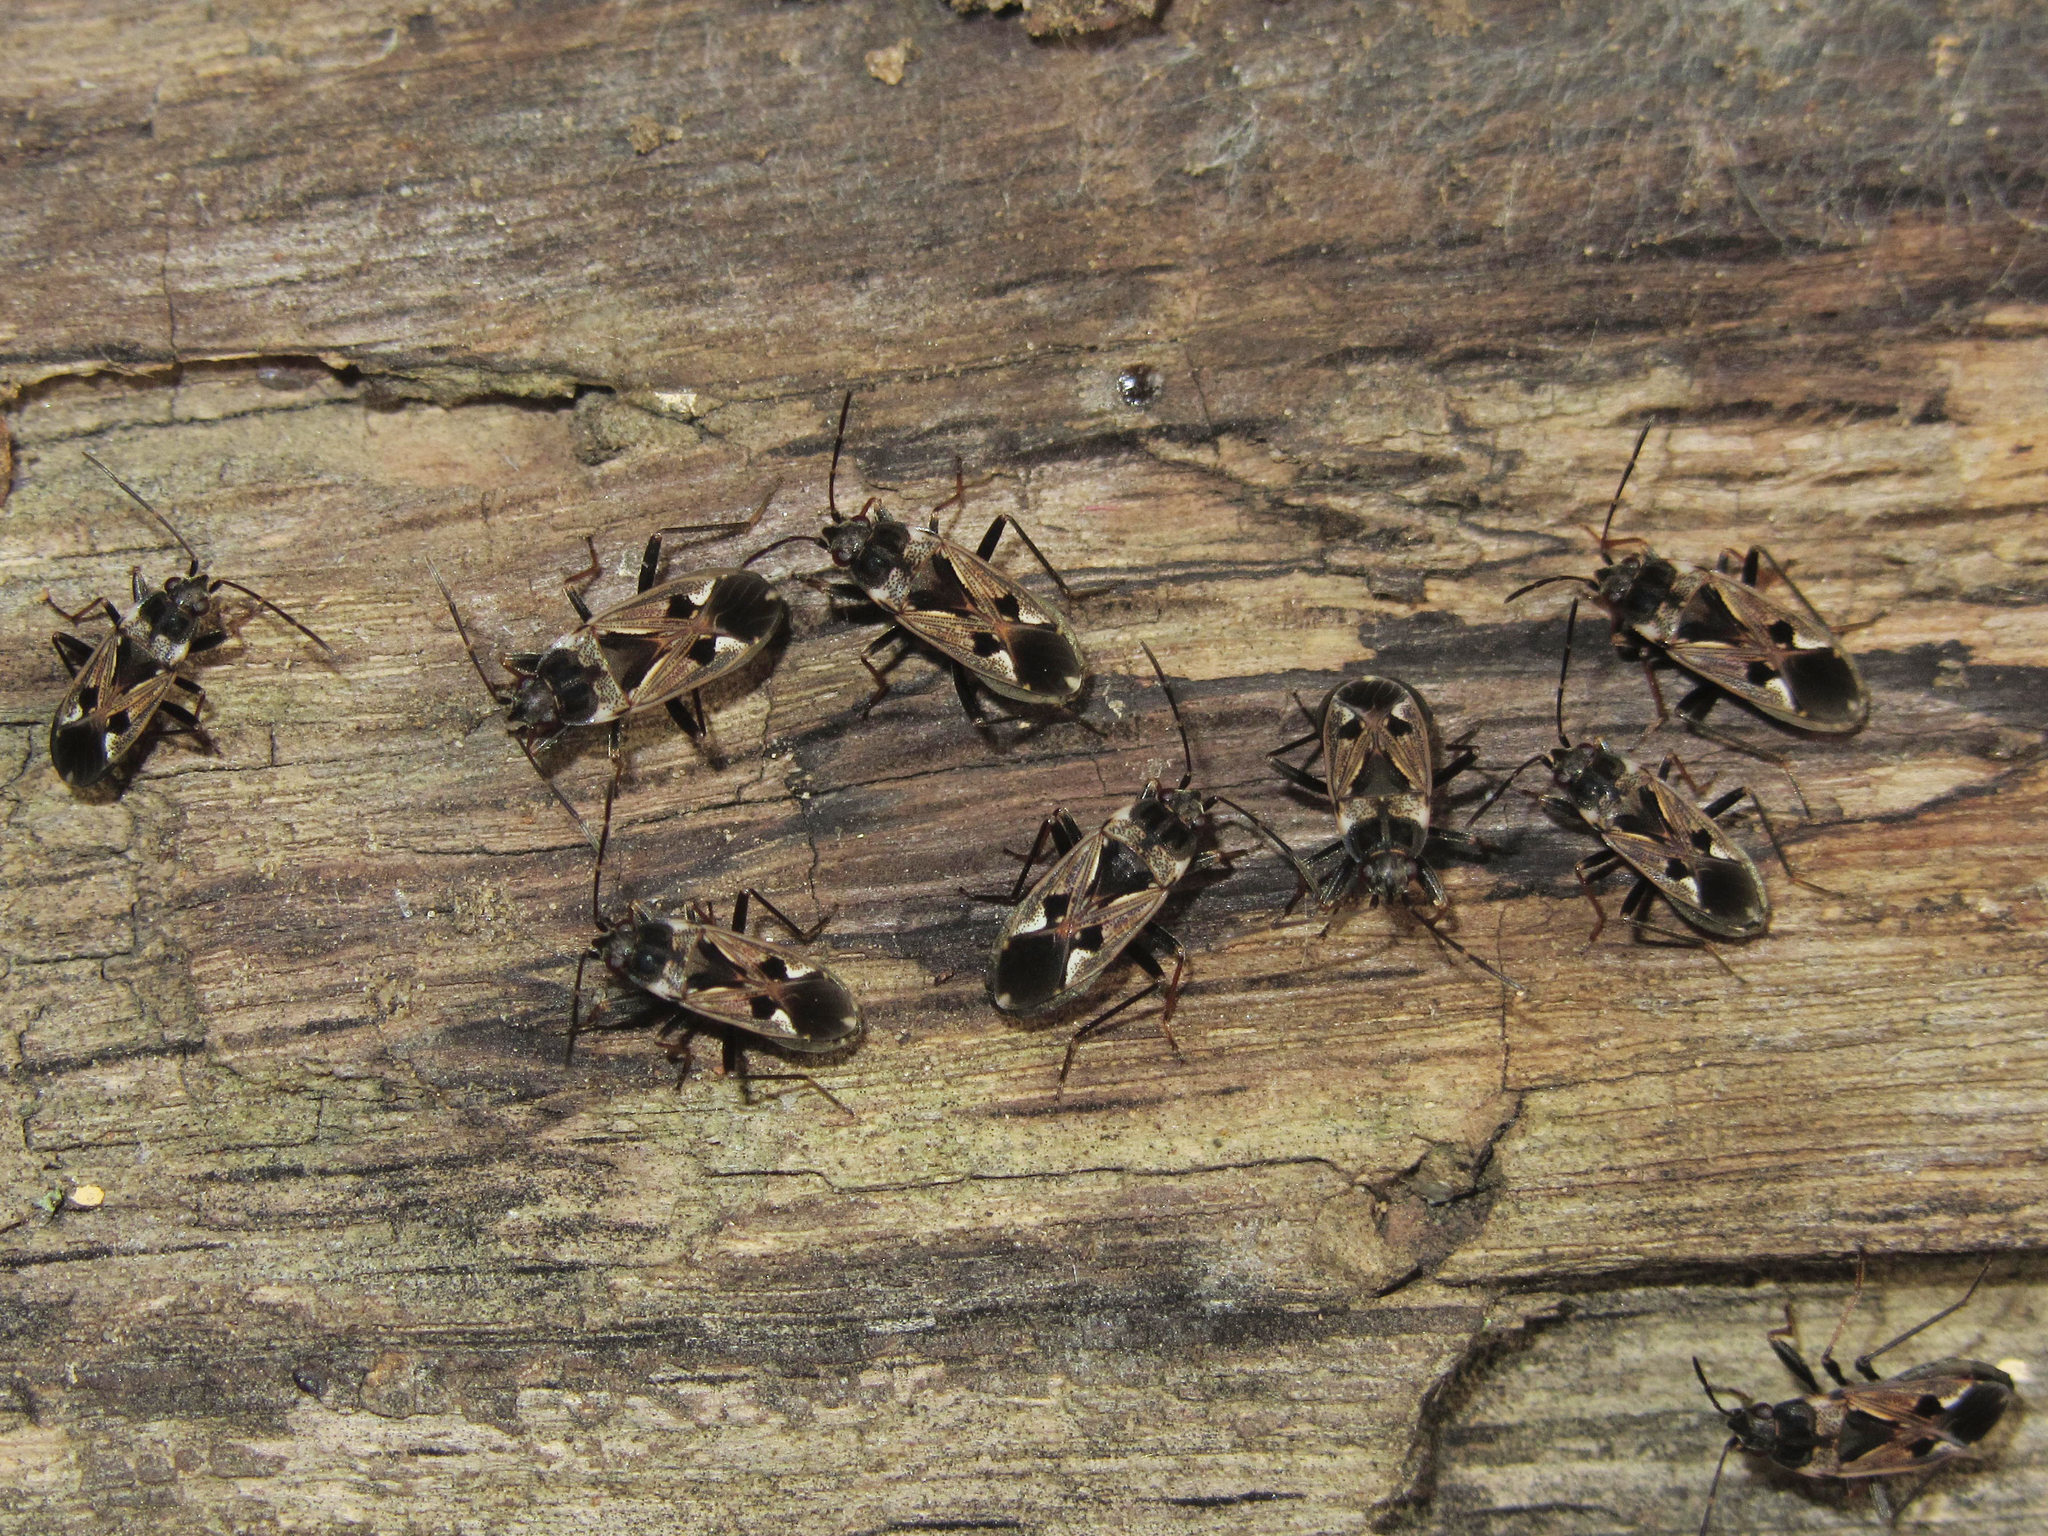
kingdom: Animalia
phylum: Arthropoda
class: Insecta
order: Hemiptera
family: Rhyparochromidae
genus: Rhyparochromus
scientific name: Rhyparochromus vulgaris
